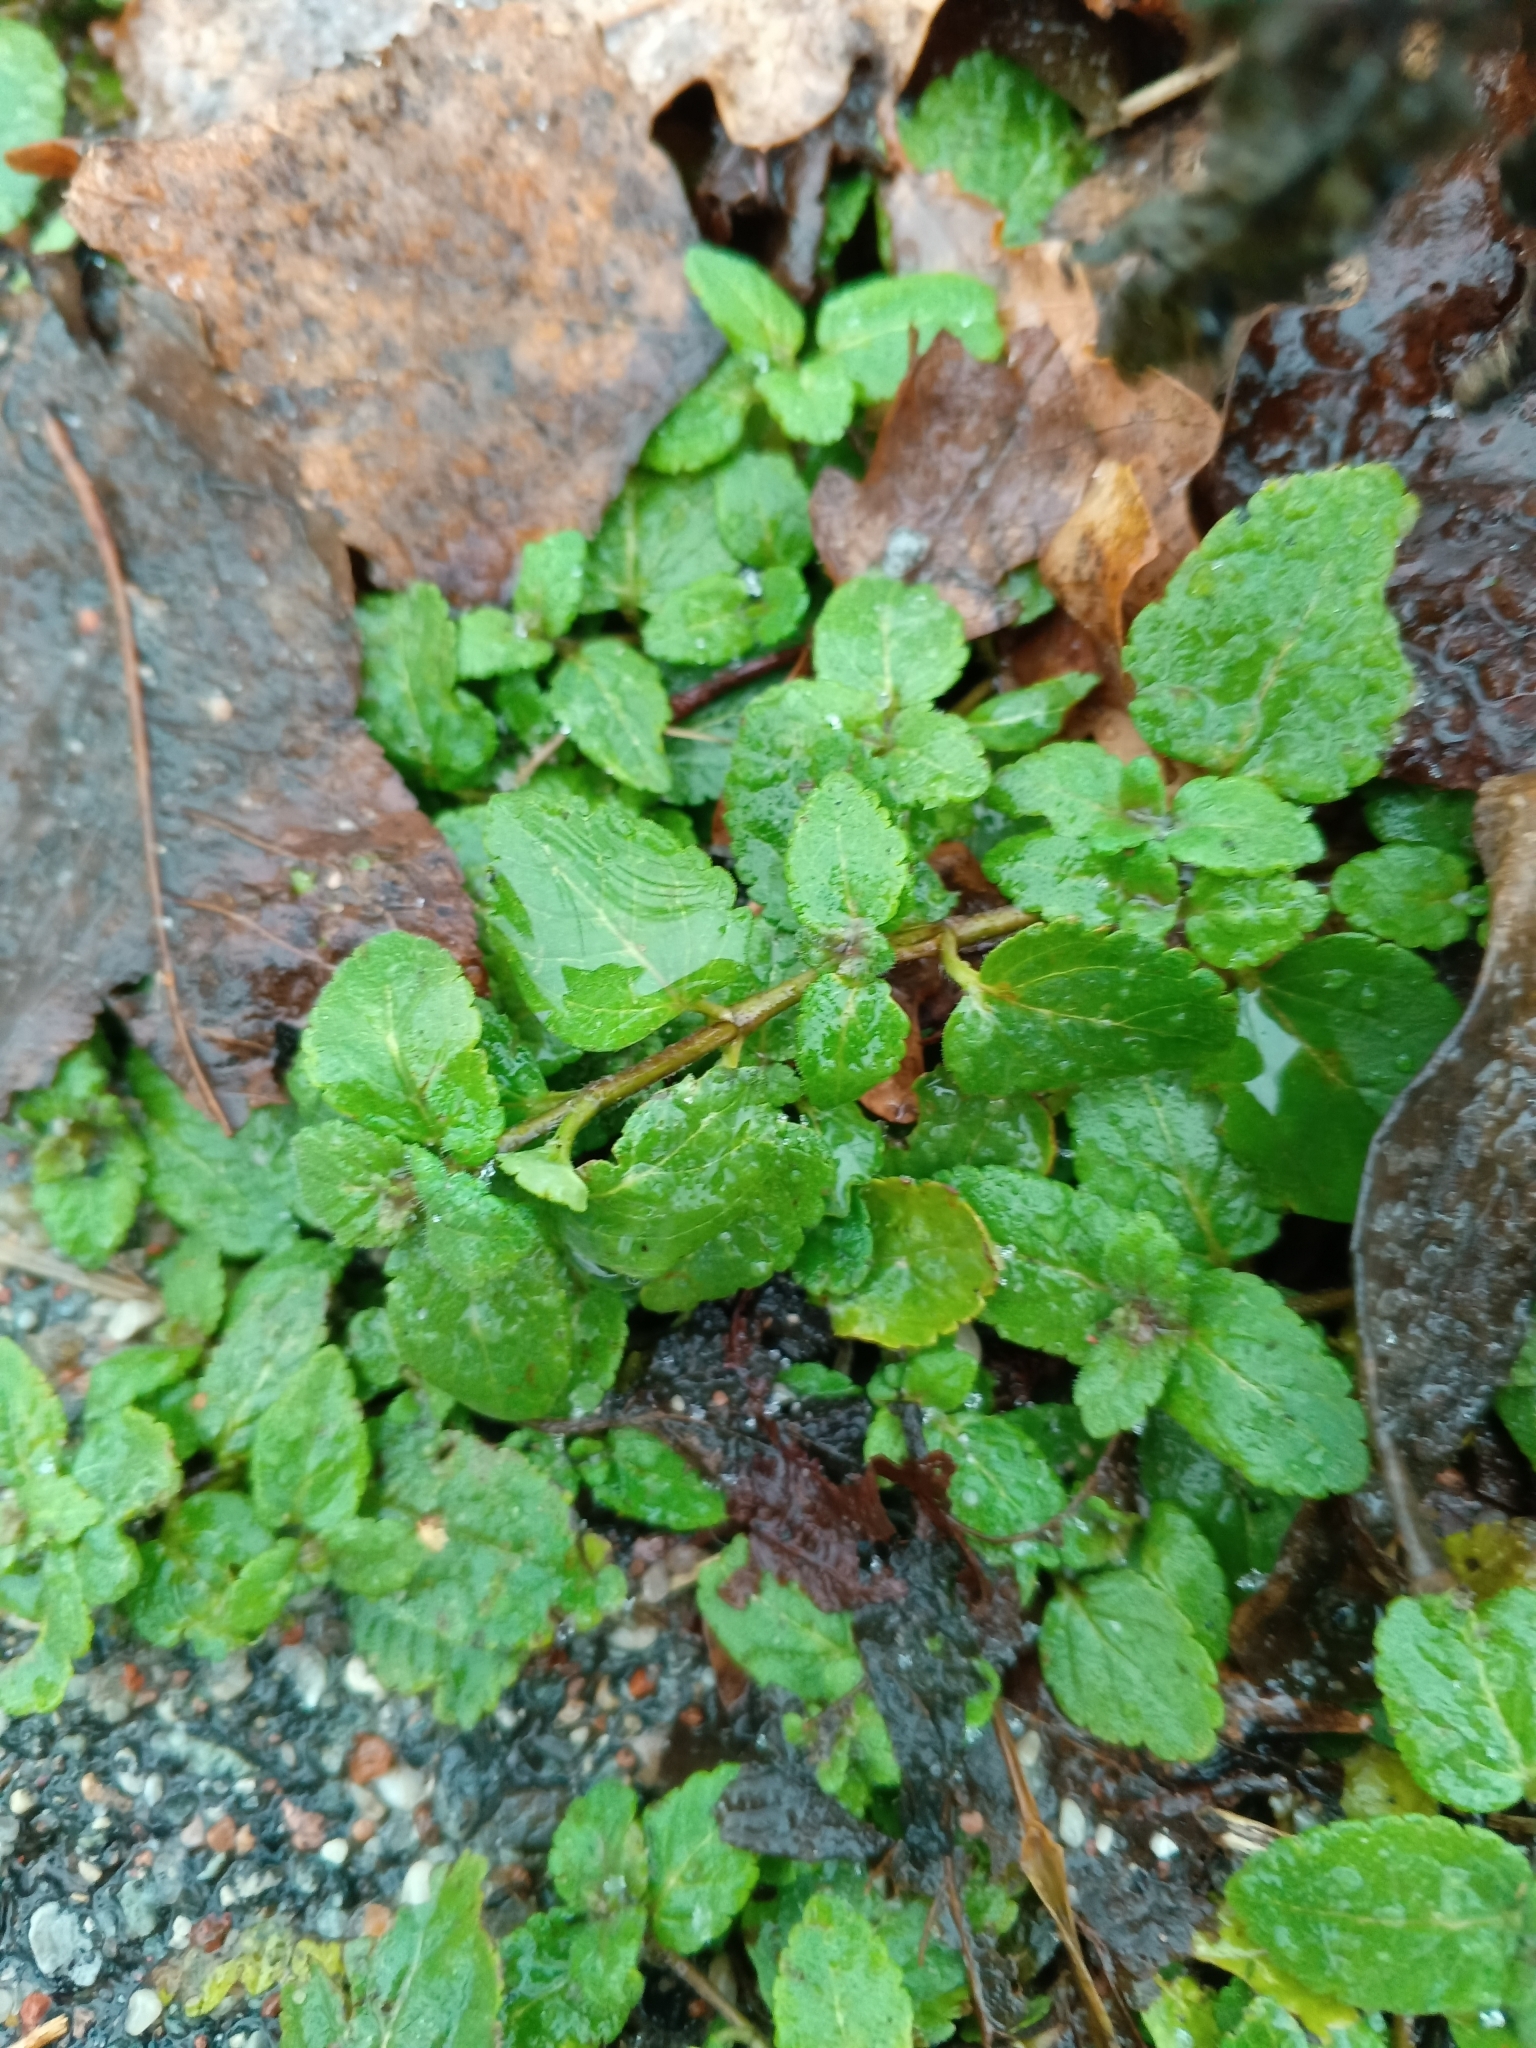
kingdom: Plantae
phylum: Tracheophyta
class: Magnoliopsida
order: Lamiales
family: Plantaginaceae
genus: Veronica
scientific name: Veronica chamaedrys
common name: Germander speedwell
